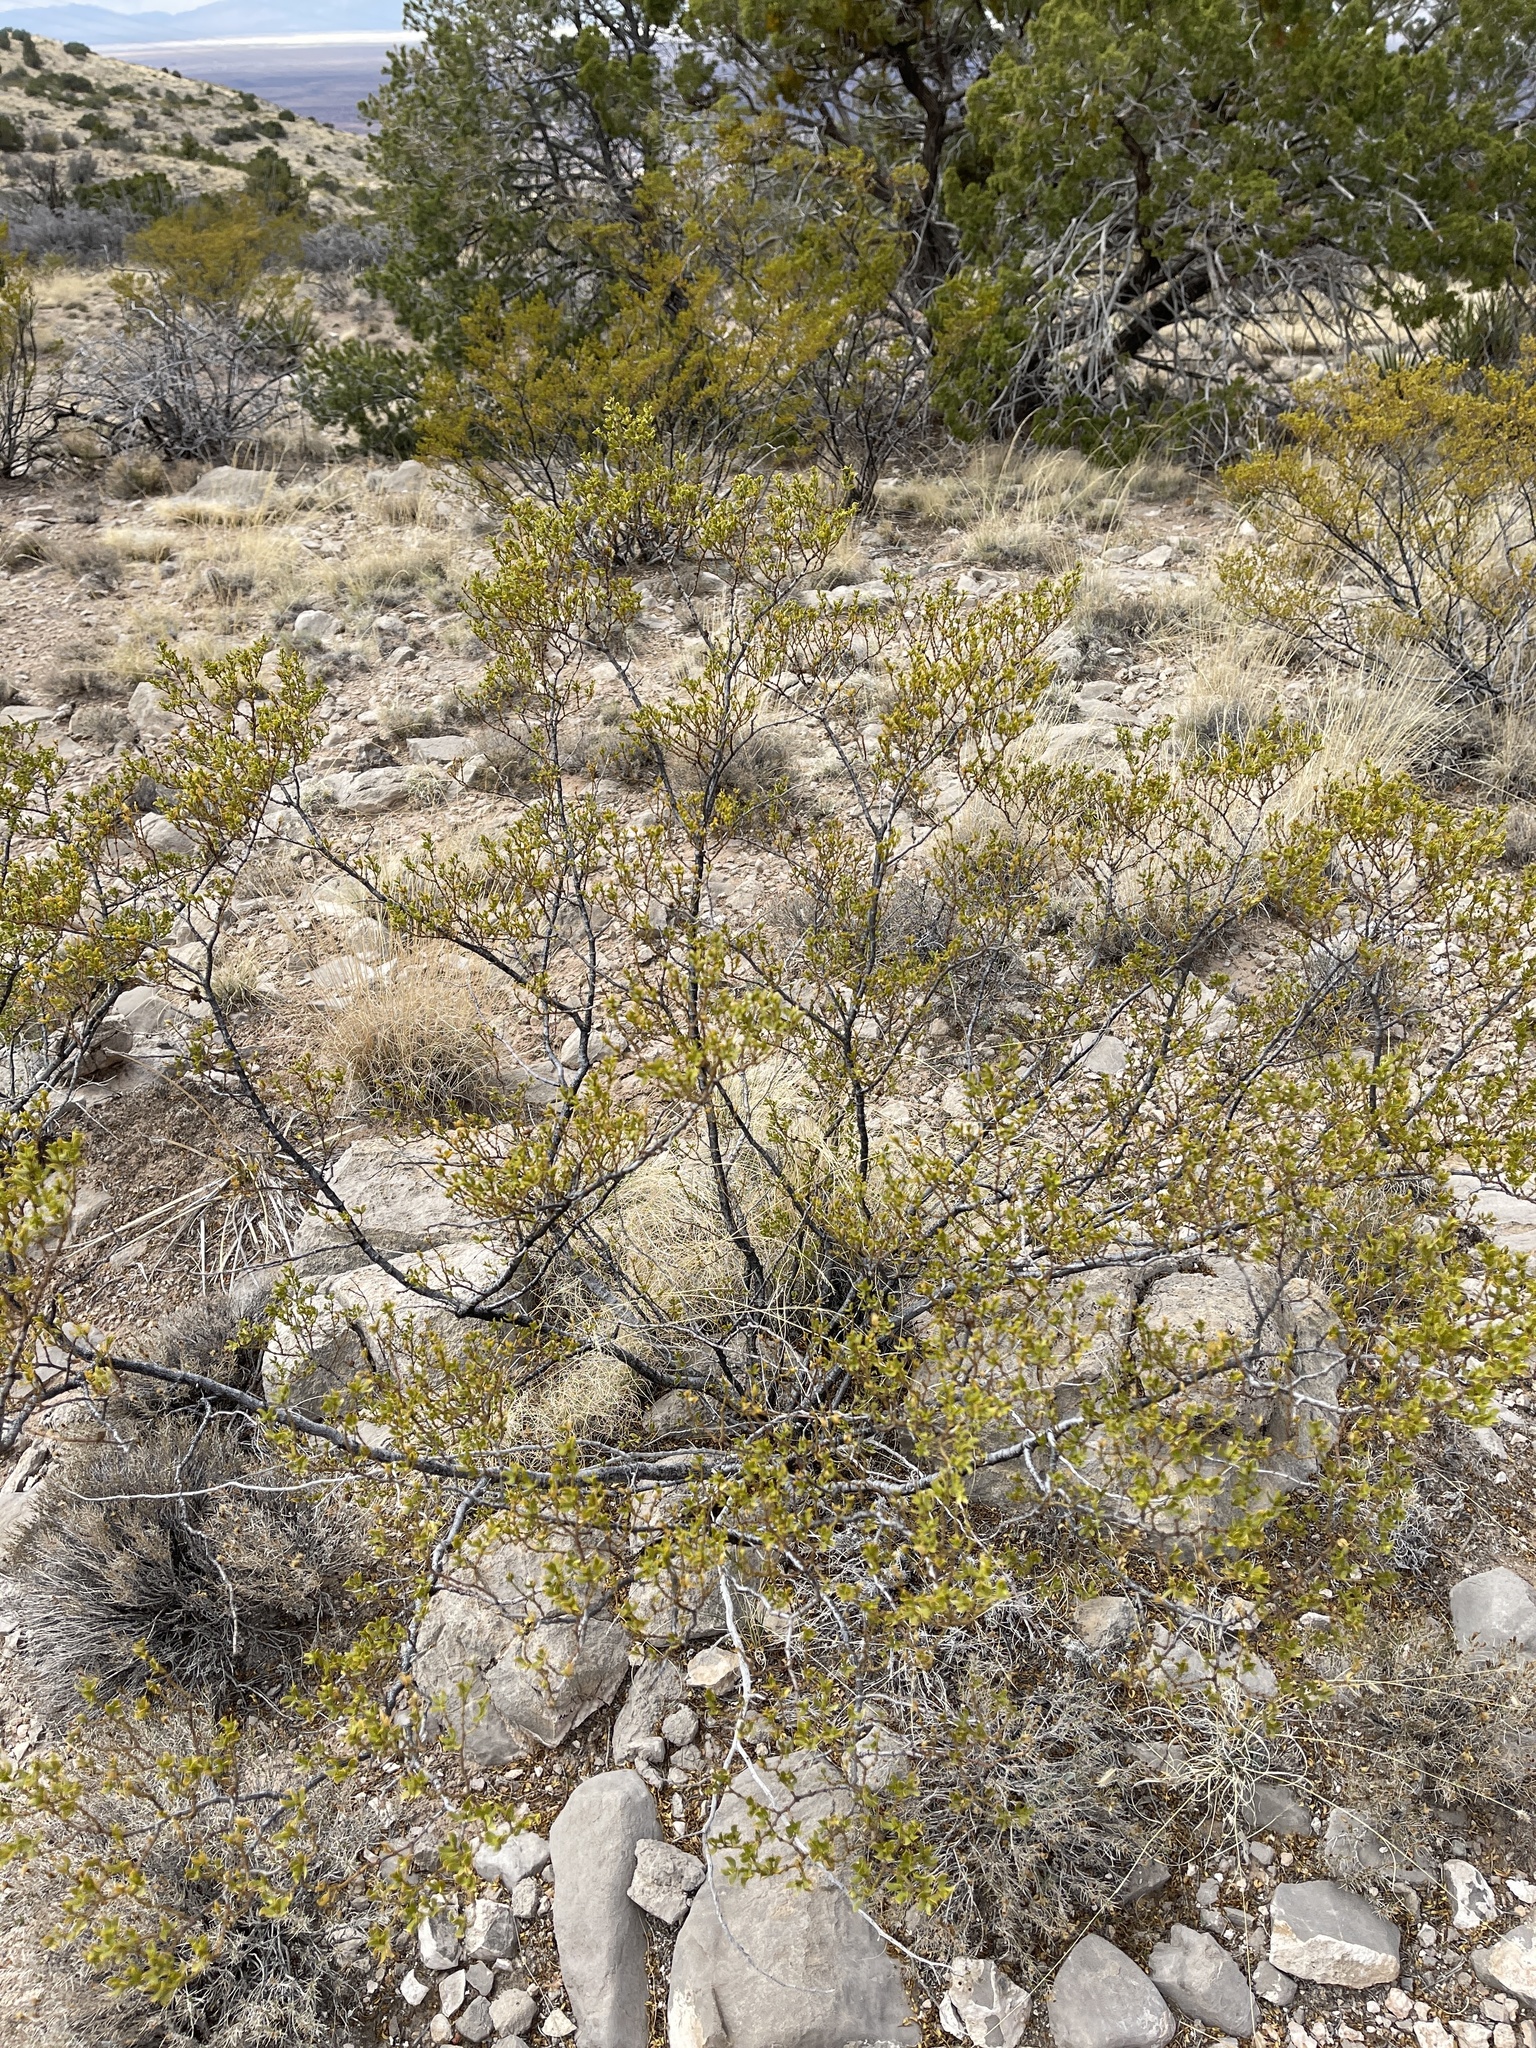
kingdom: Plantae
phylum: Tracheophyta
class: Magnoliopsida
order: Zygophyllales
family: Zygophyllaceae
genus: Larrea
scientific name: Larrea tridentata
